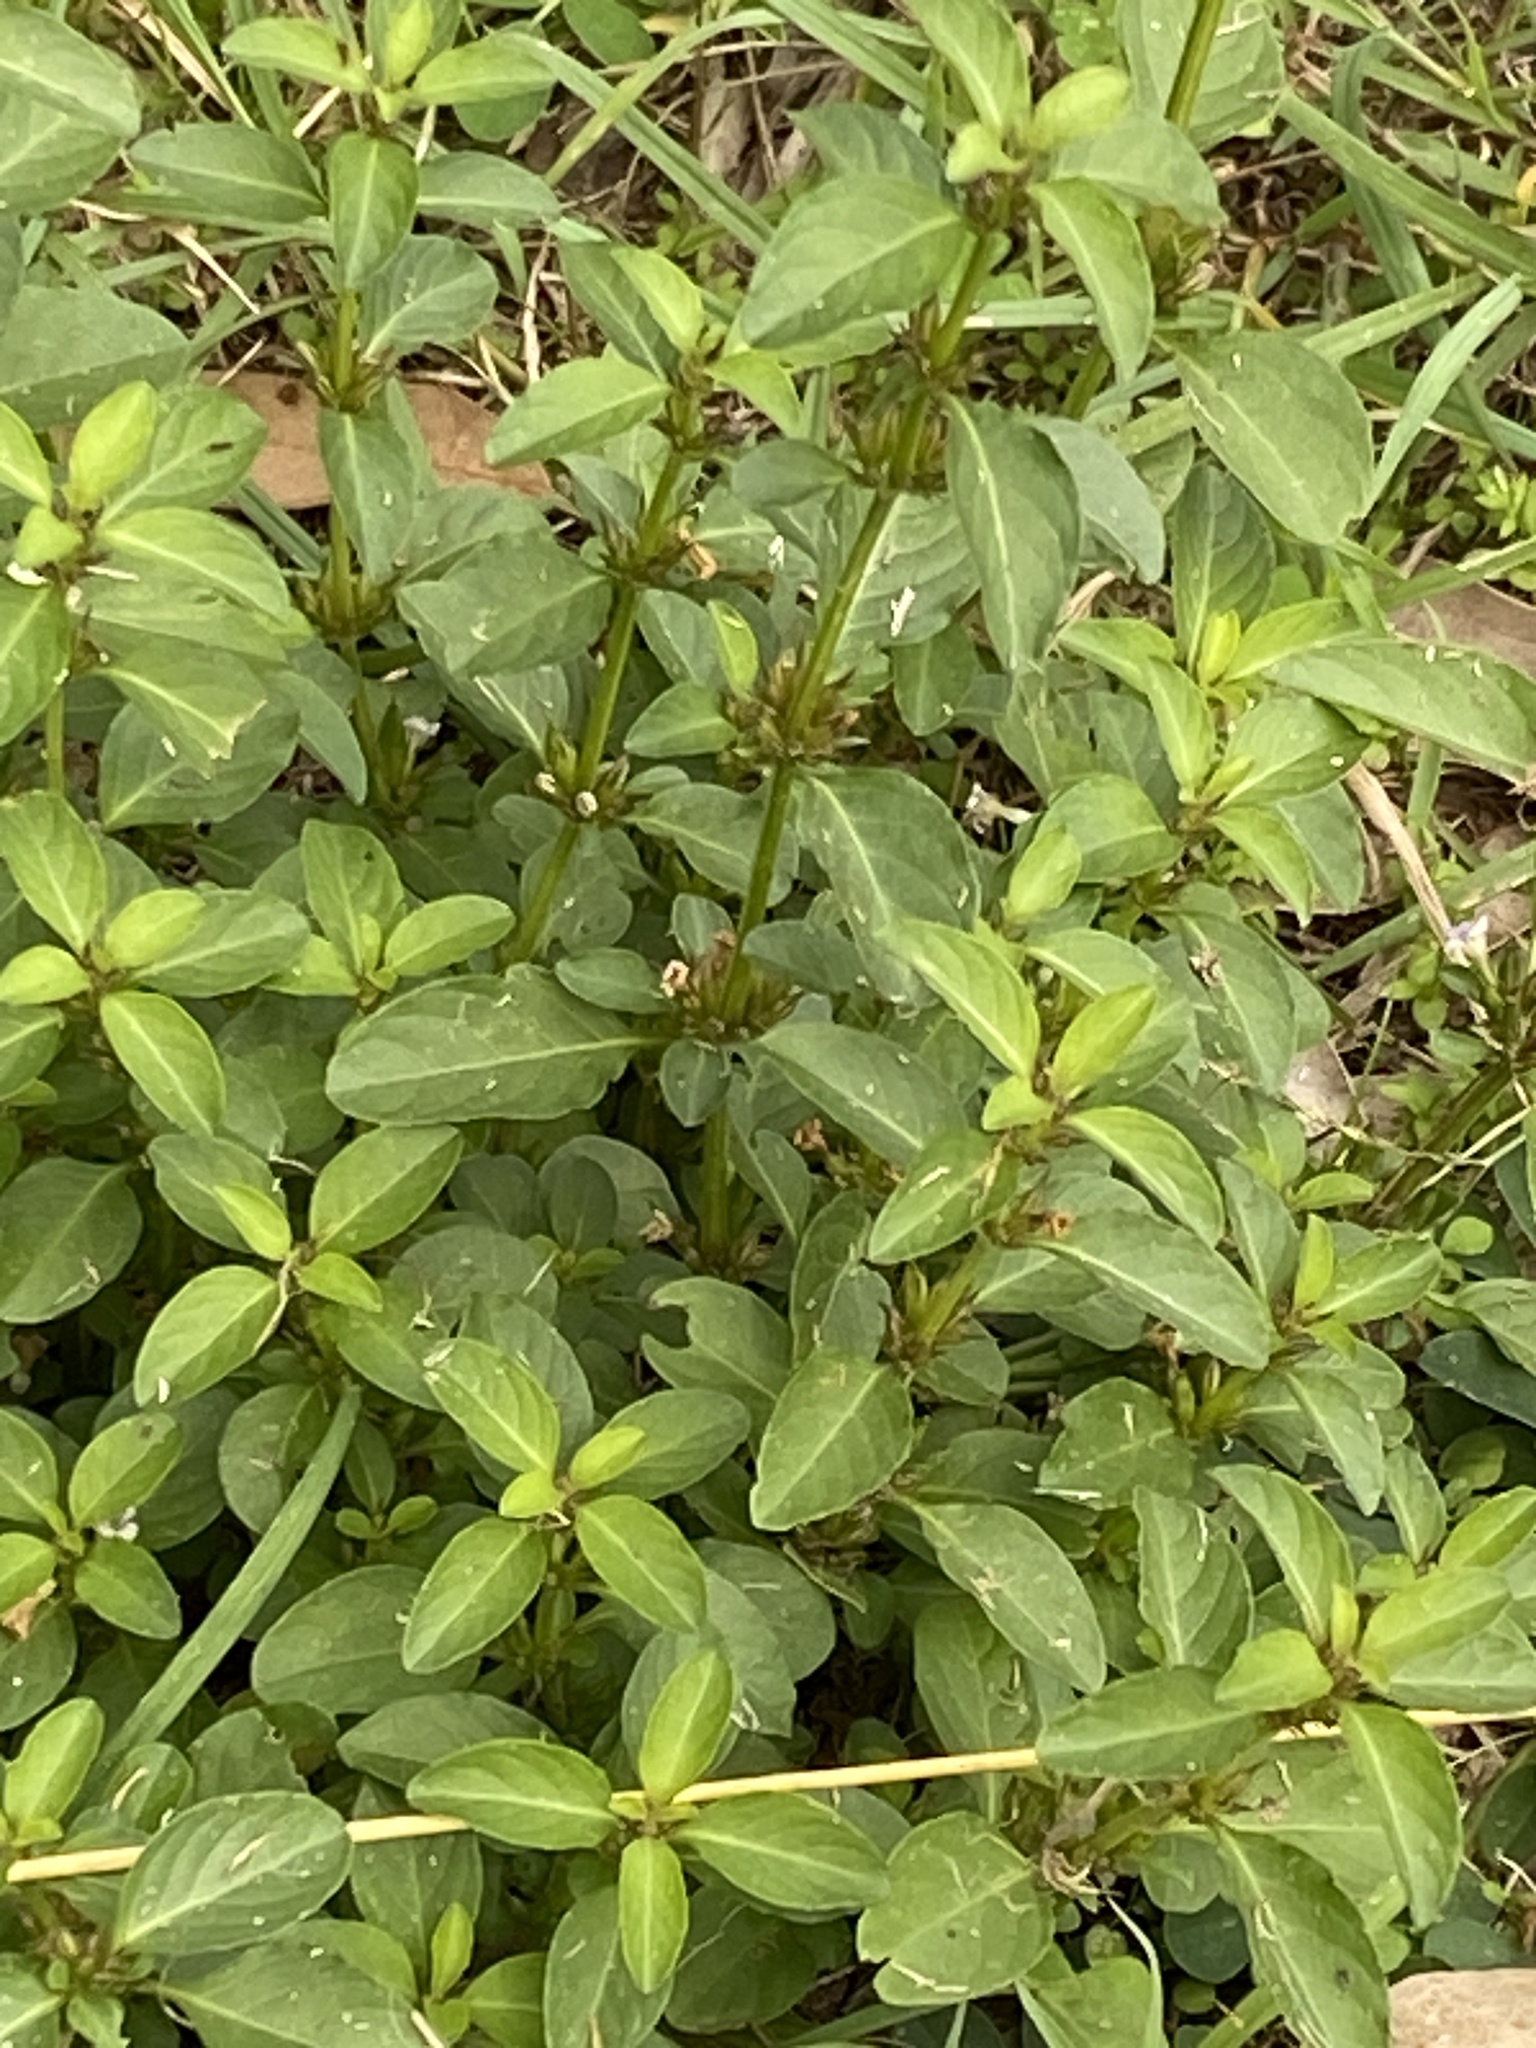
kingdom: Plantae
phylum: Tracheophyta
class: Magnoliopsida
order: Lamiales
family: Acanthaceae
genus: Hygrophila
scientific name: Hygrophila erecta
